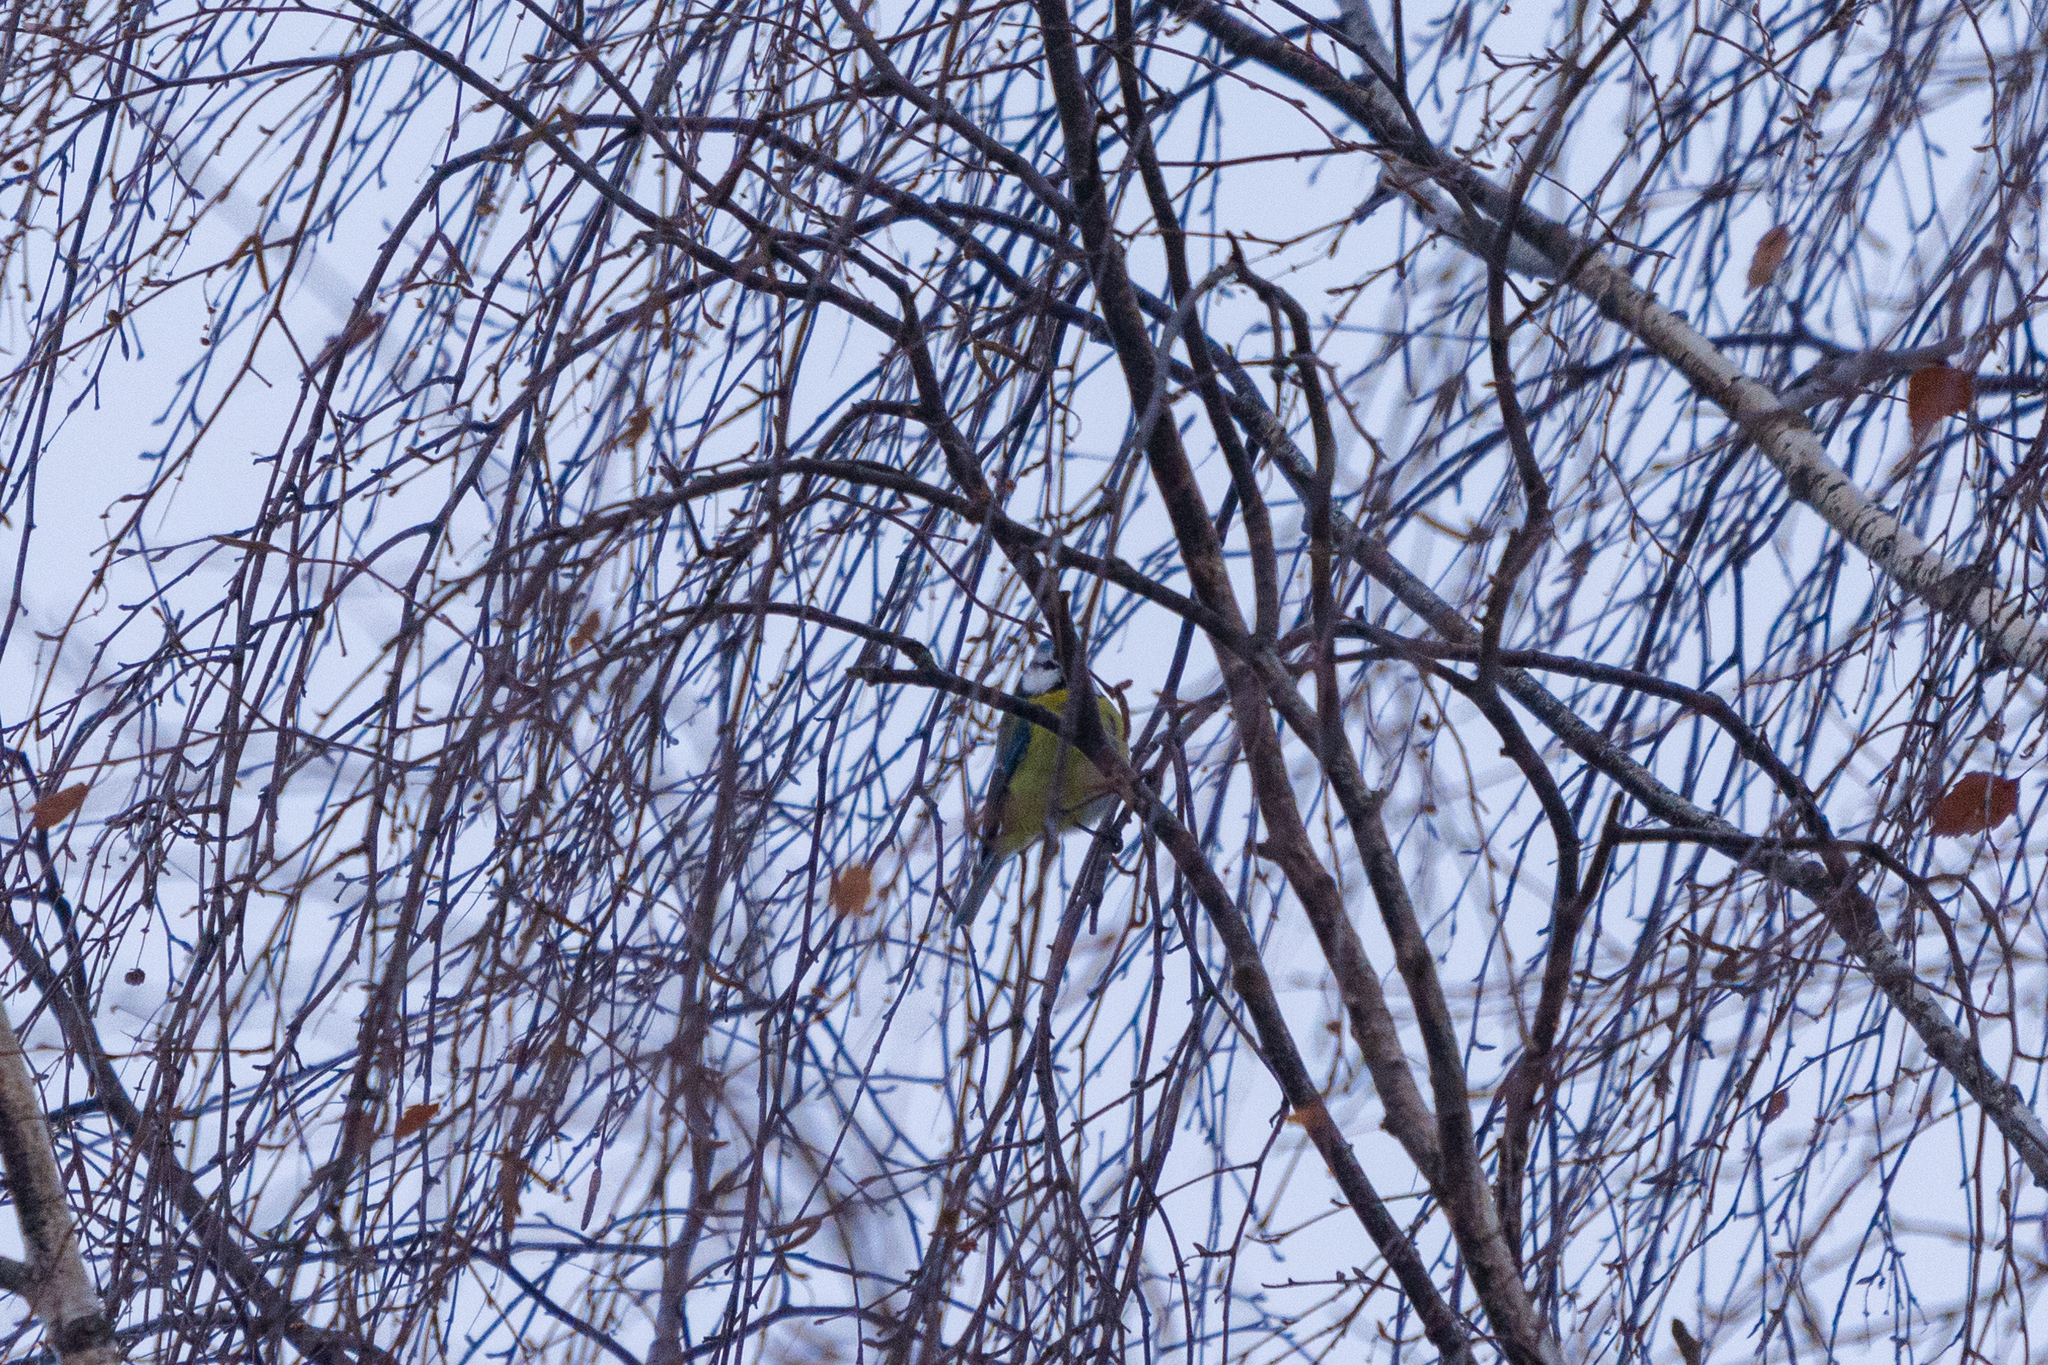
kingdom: Animalia
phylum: Chordata
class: Aves
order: Passeriformes
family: Paridae
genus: Cyanistes
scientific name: Cyanistes caeruleus
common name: Eurasian blue tit
